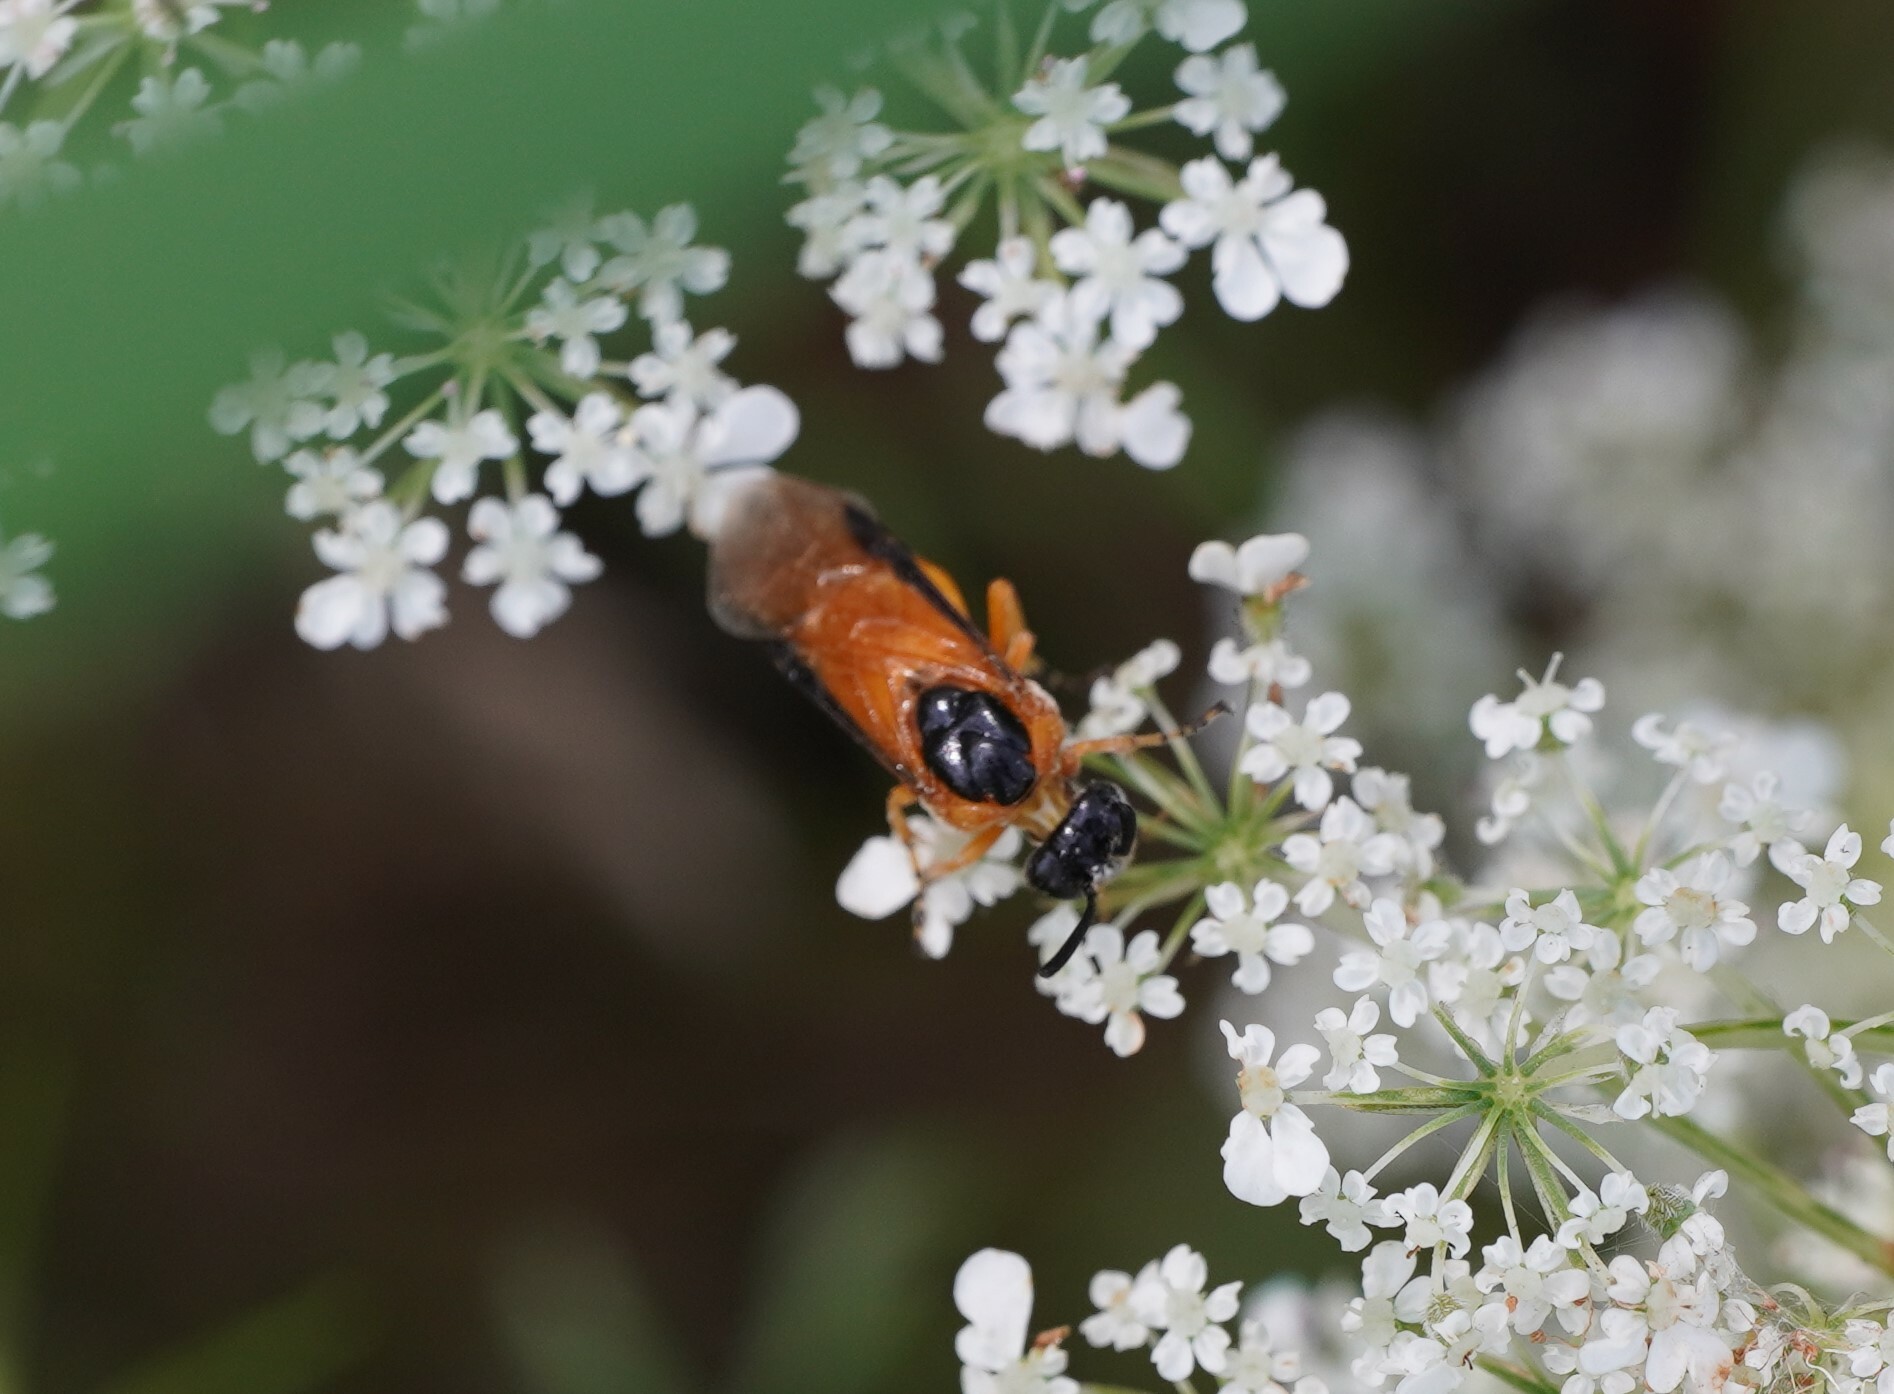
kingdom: Animalia
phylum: Arthropoda
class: Insecta
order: Hymenoptera
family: Argidae
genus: Arge
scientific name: Arge ochropus
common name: Argid sawfly
